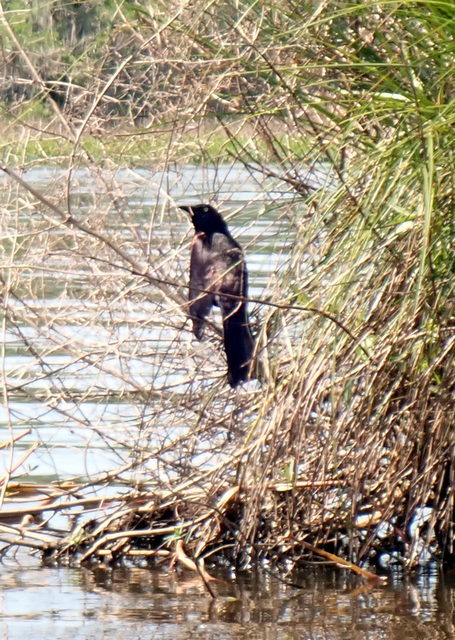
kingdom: Animalia
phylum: Chordata
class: Aves
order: Passeriformes
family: Icteridae
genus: Quiscalus
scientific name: Quiscalus quiscula
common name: Common grackle
